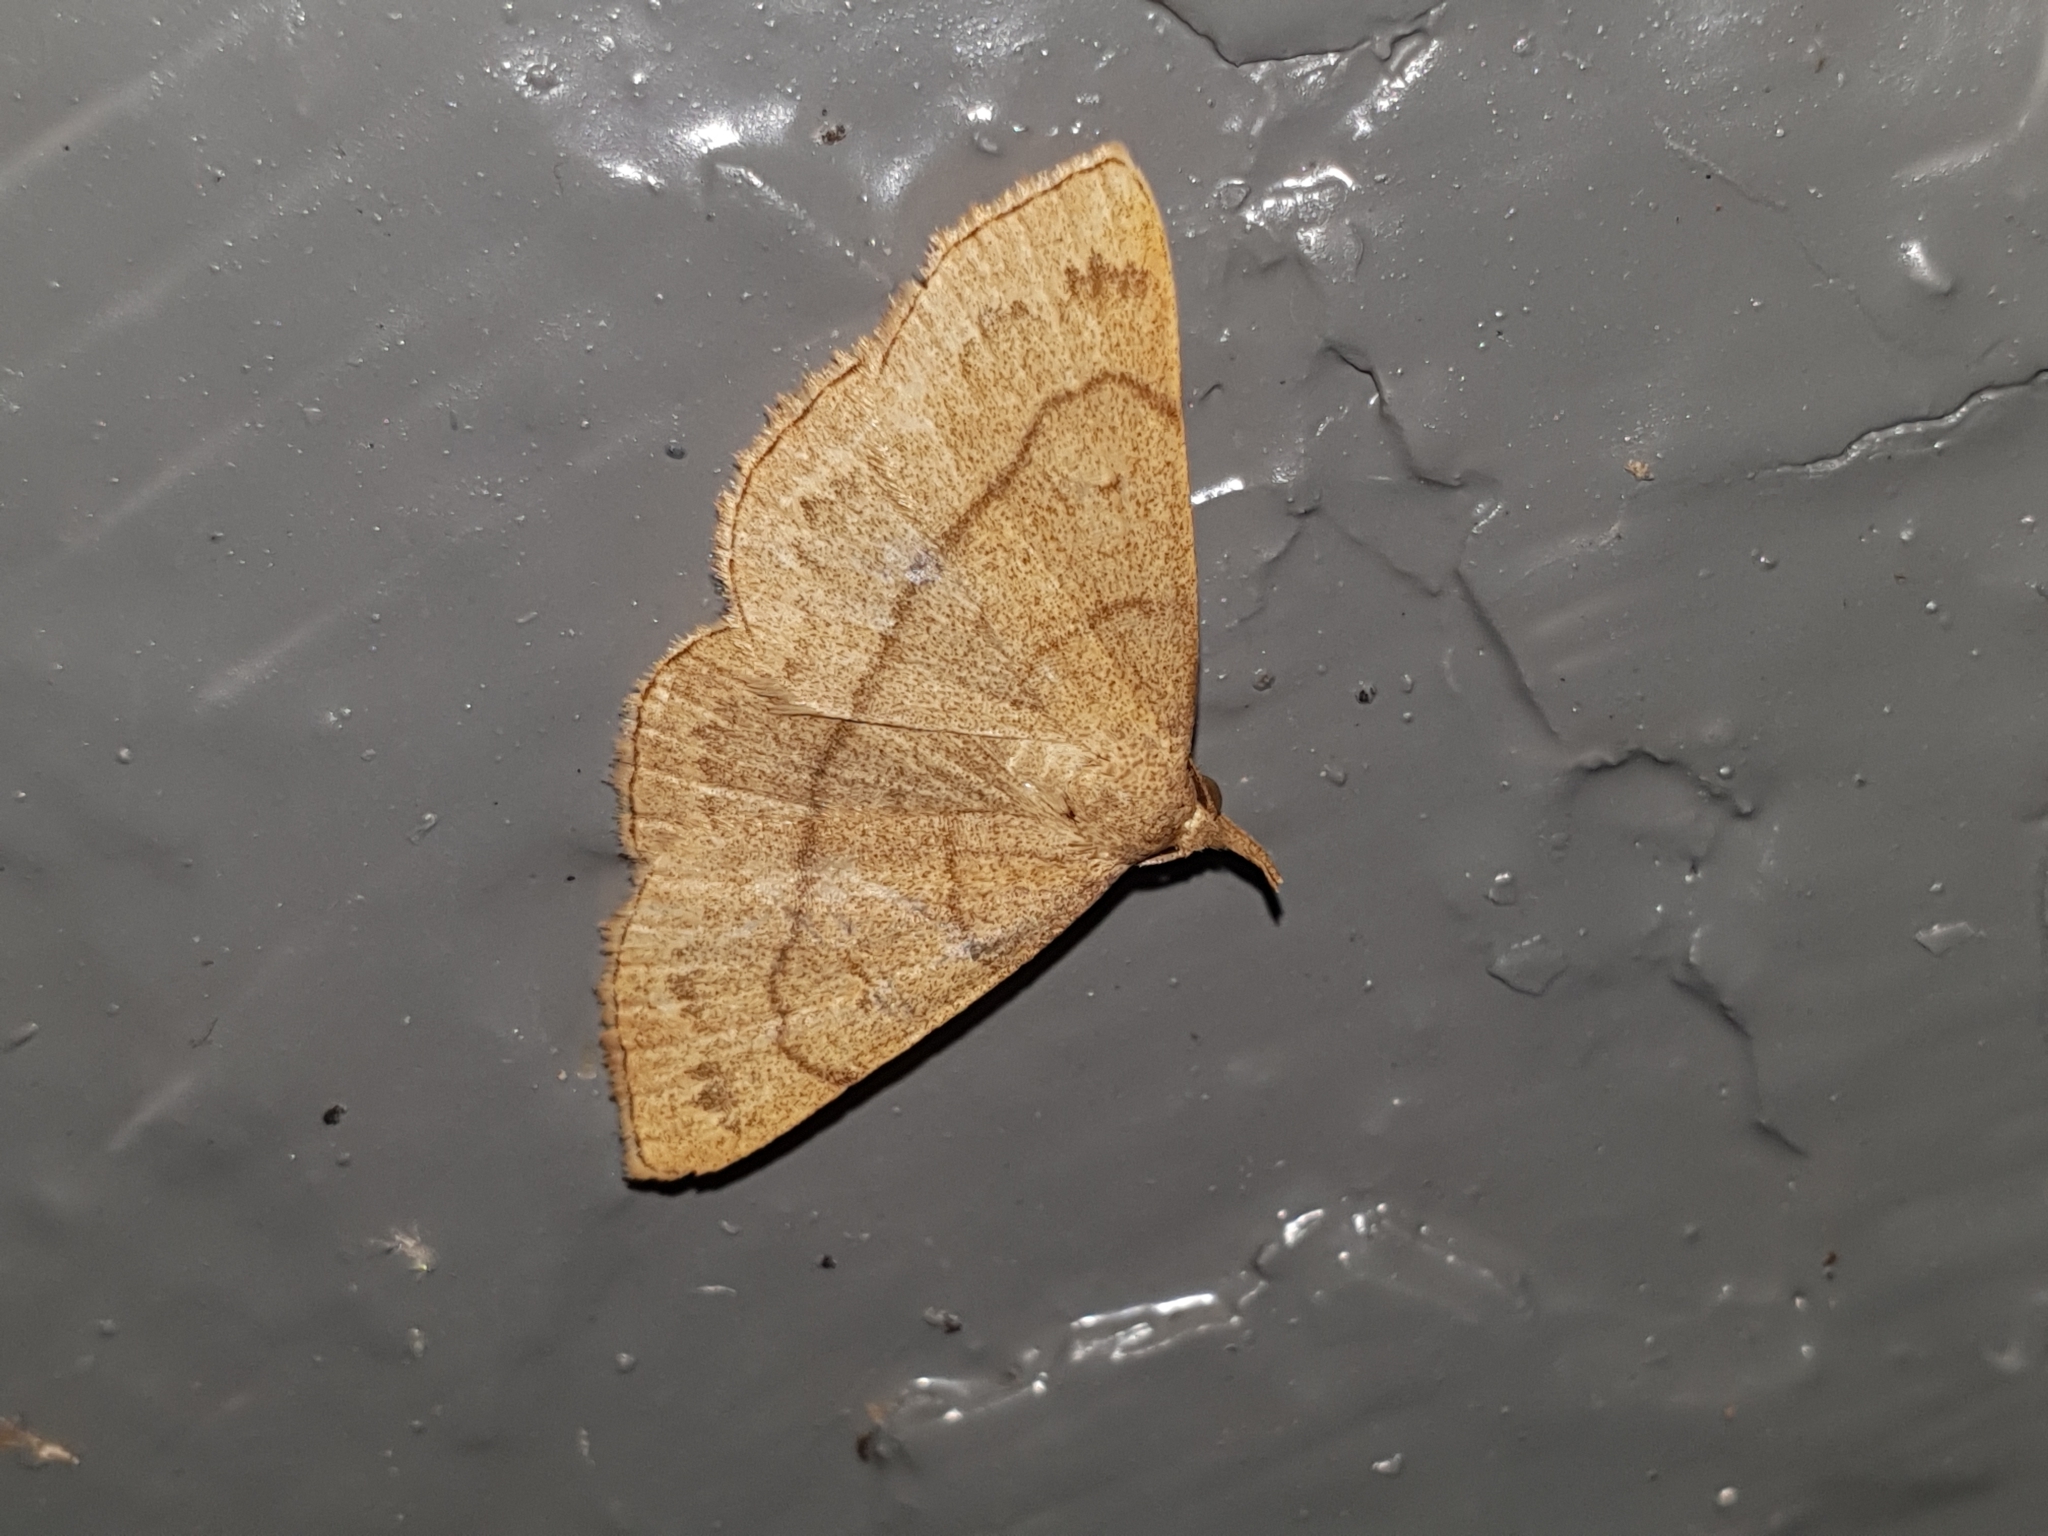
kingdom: Animalia
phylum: Arthropoda
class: Insecta
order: Lepidoptera
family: Erebidae
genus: Paracolax
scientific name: Paracolax tristalis
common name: Clay fan-foot
